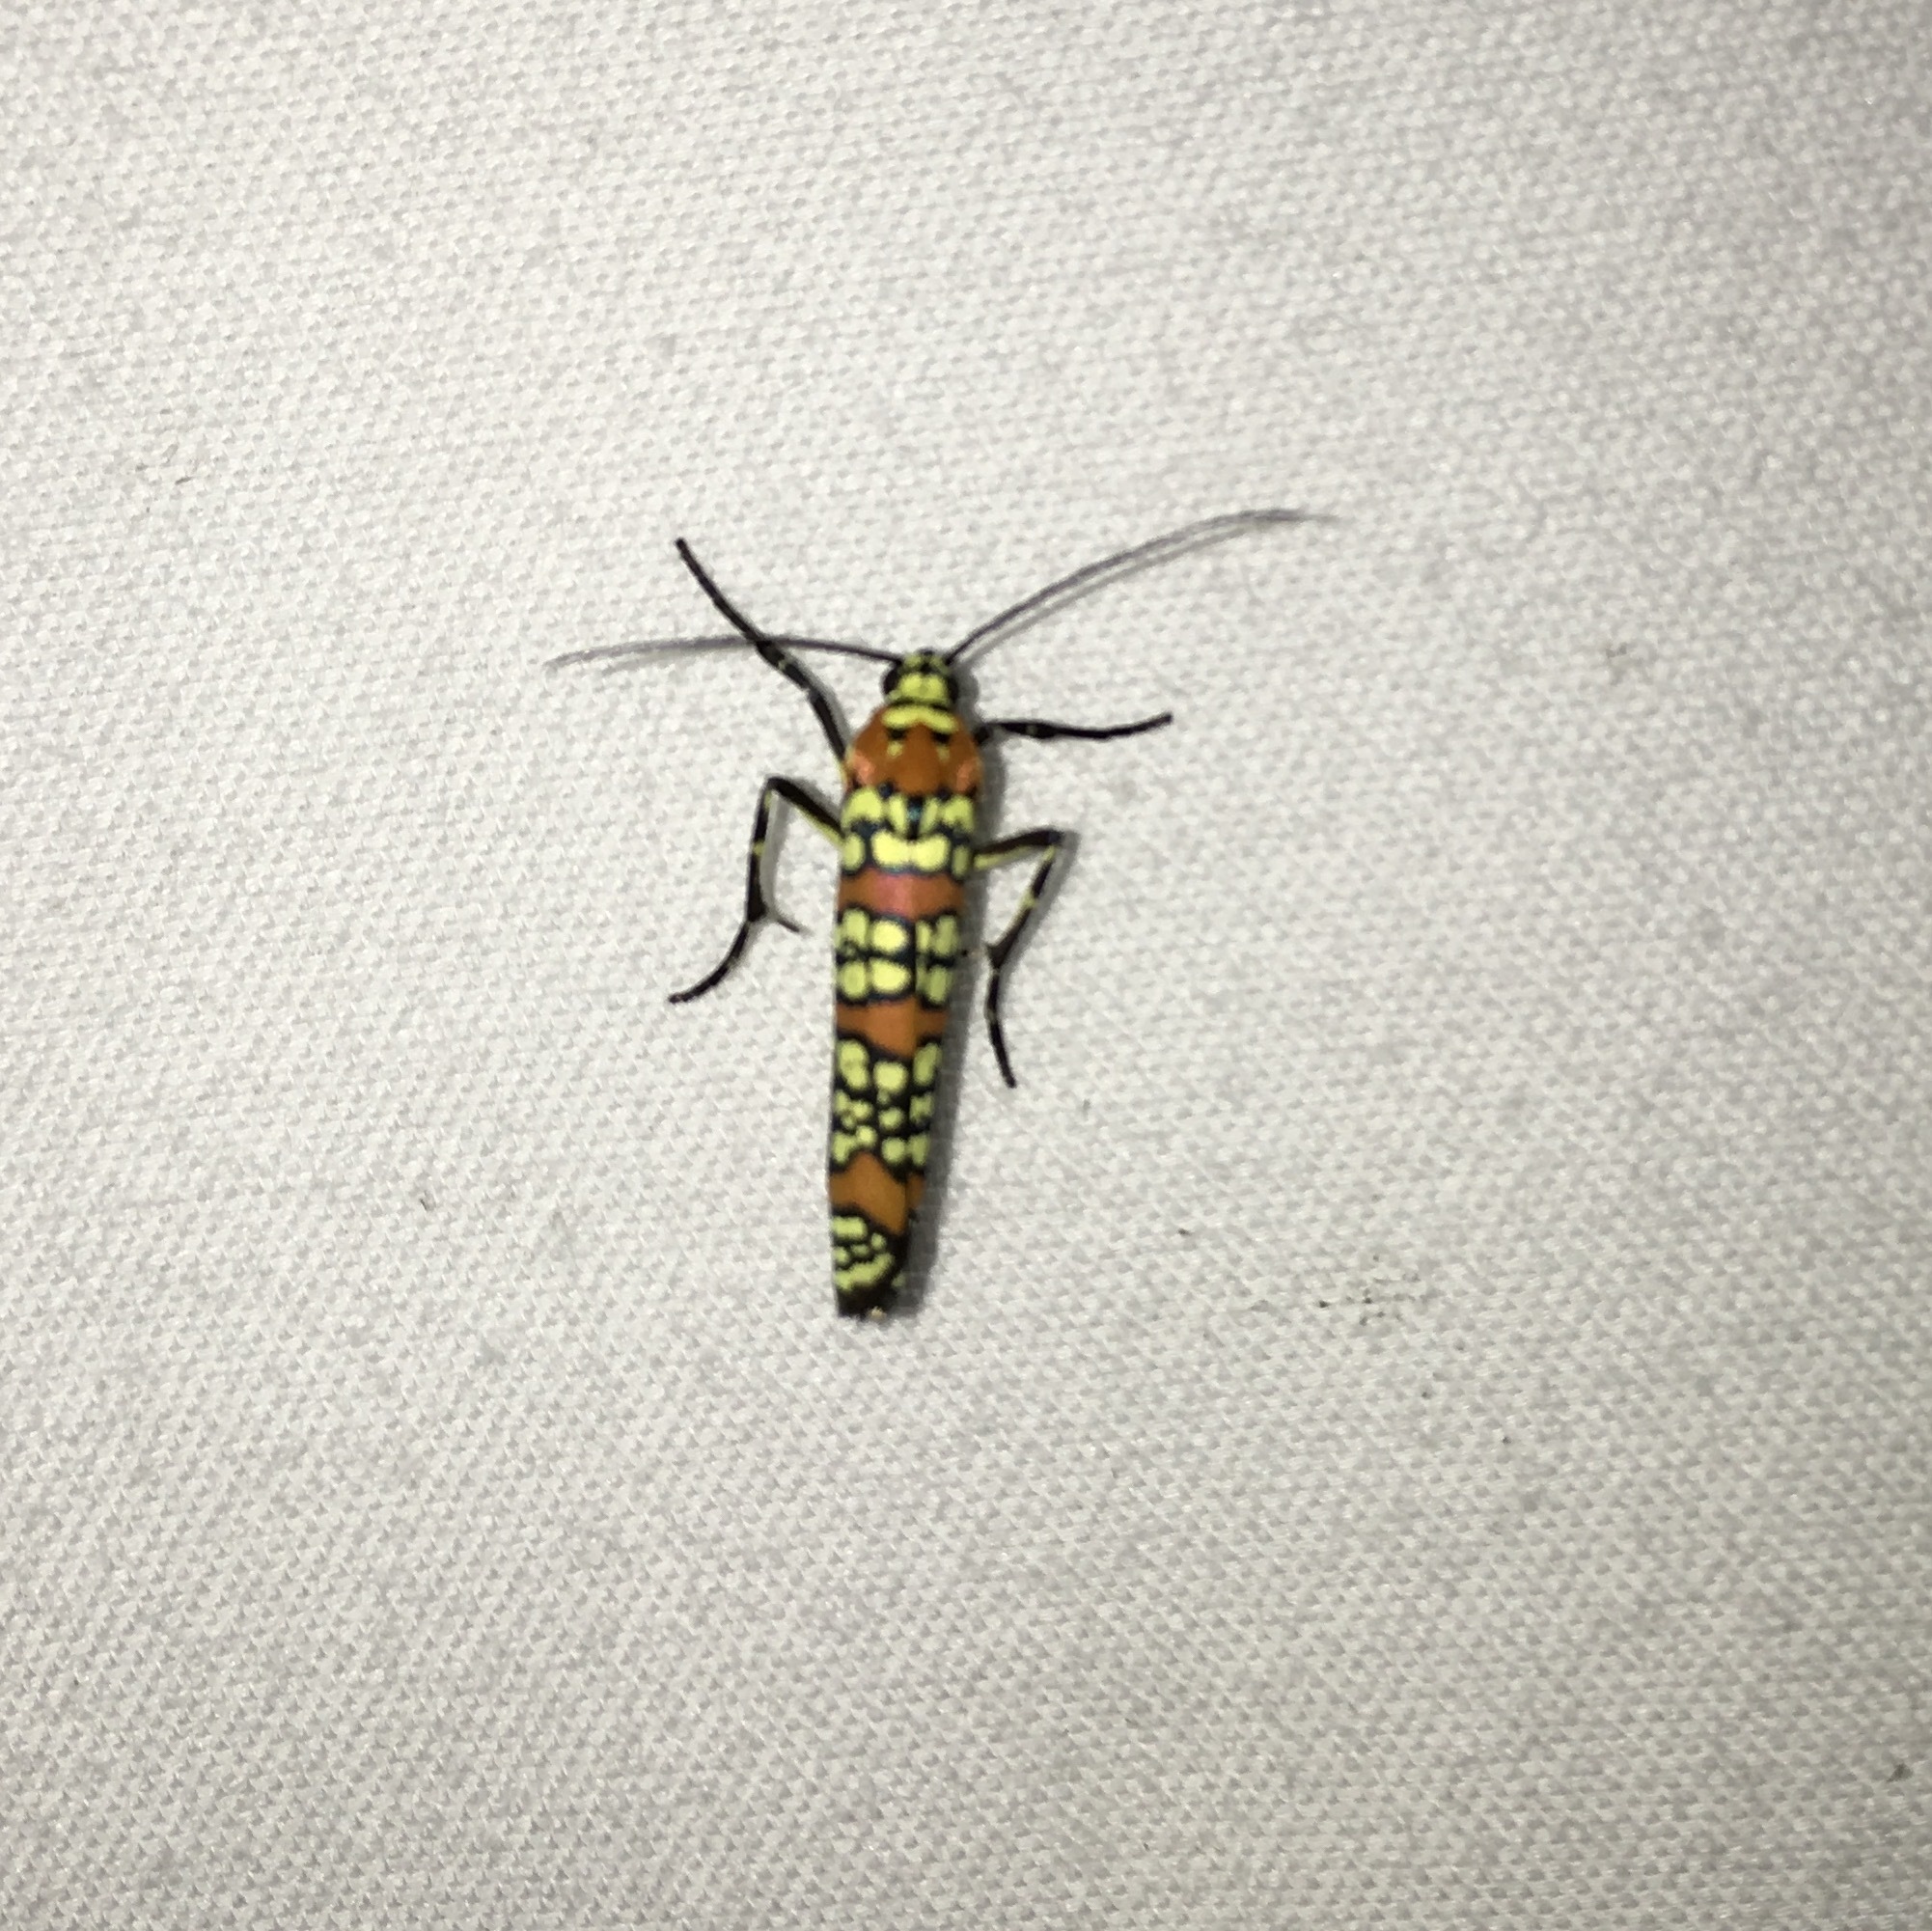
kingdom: Animalia
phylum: Arthropoda
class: Insecta
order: Lepidoptera
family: Attevidae
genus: Atteva
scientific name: Atteva punctella
